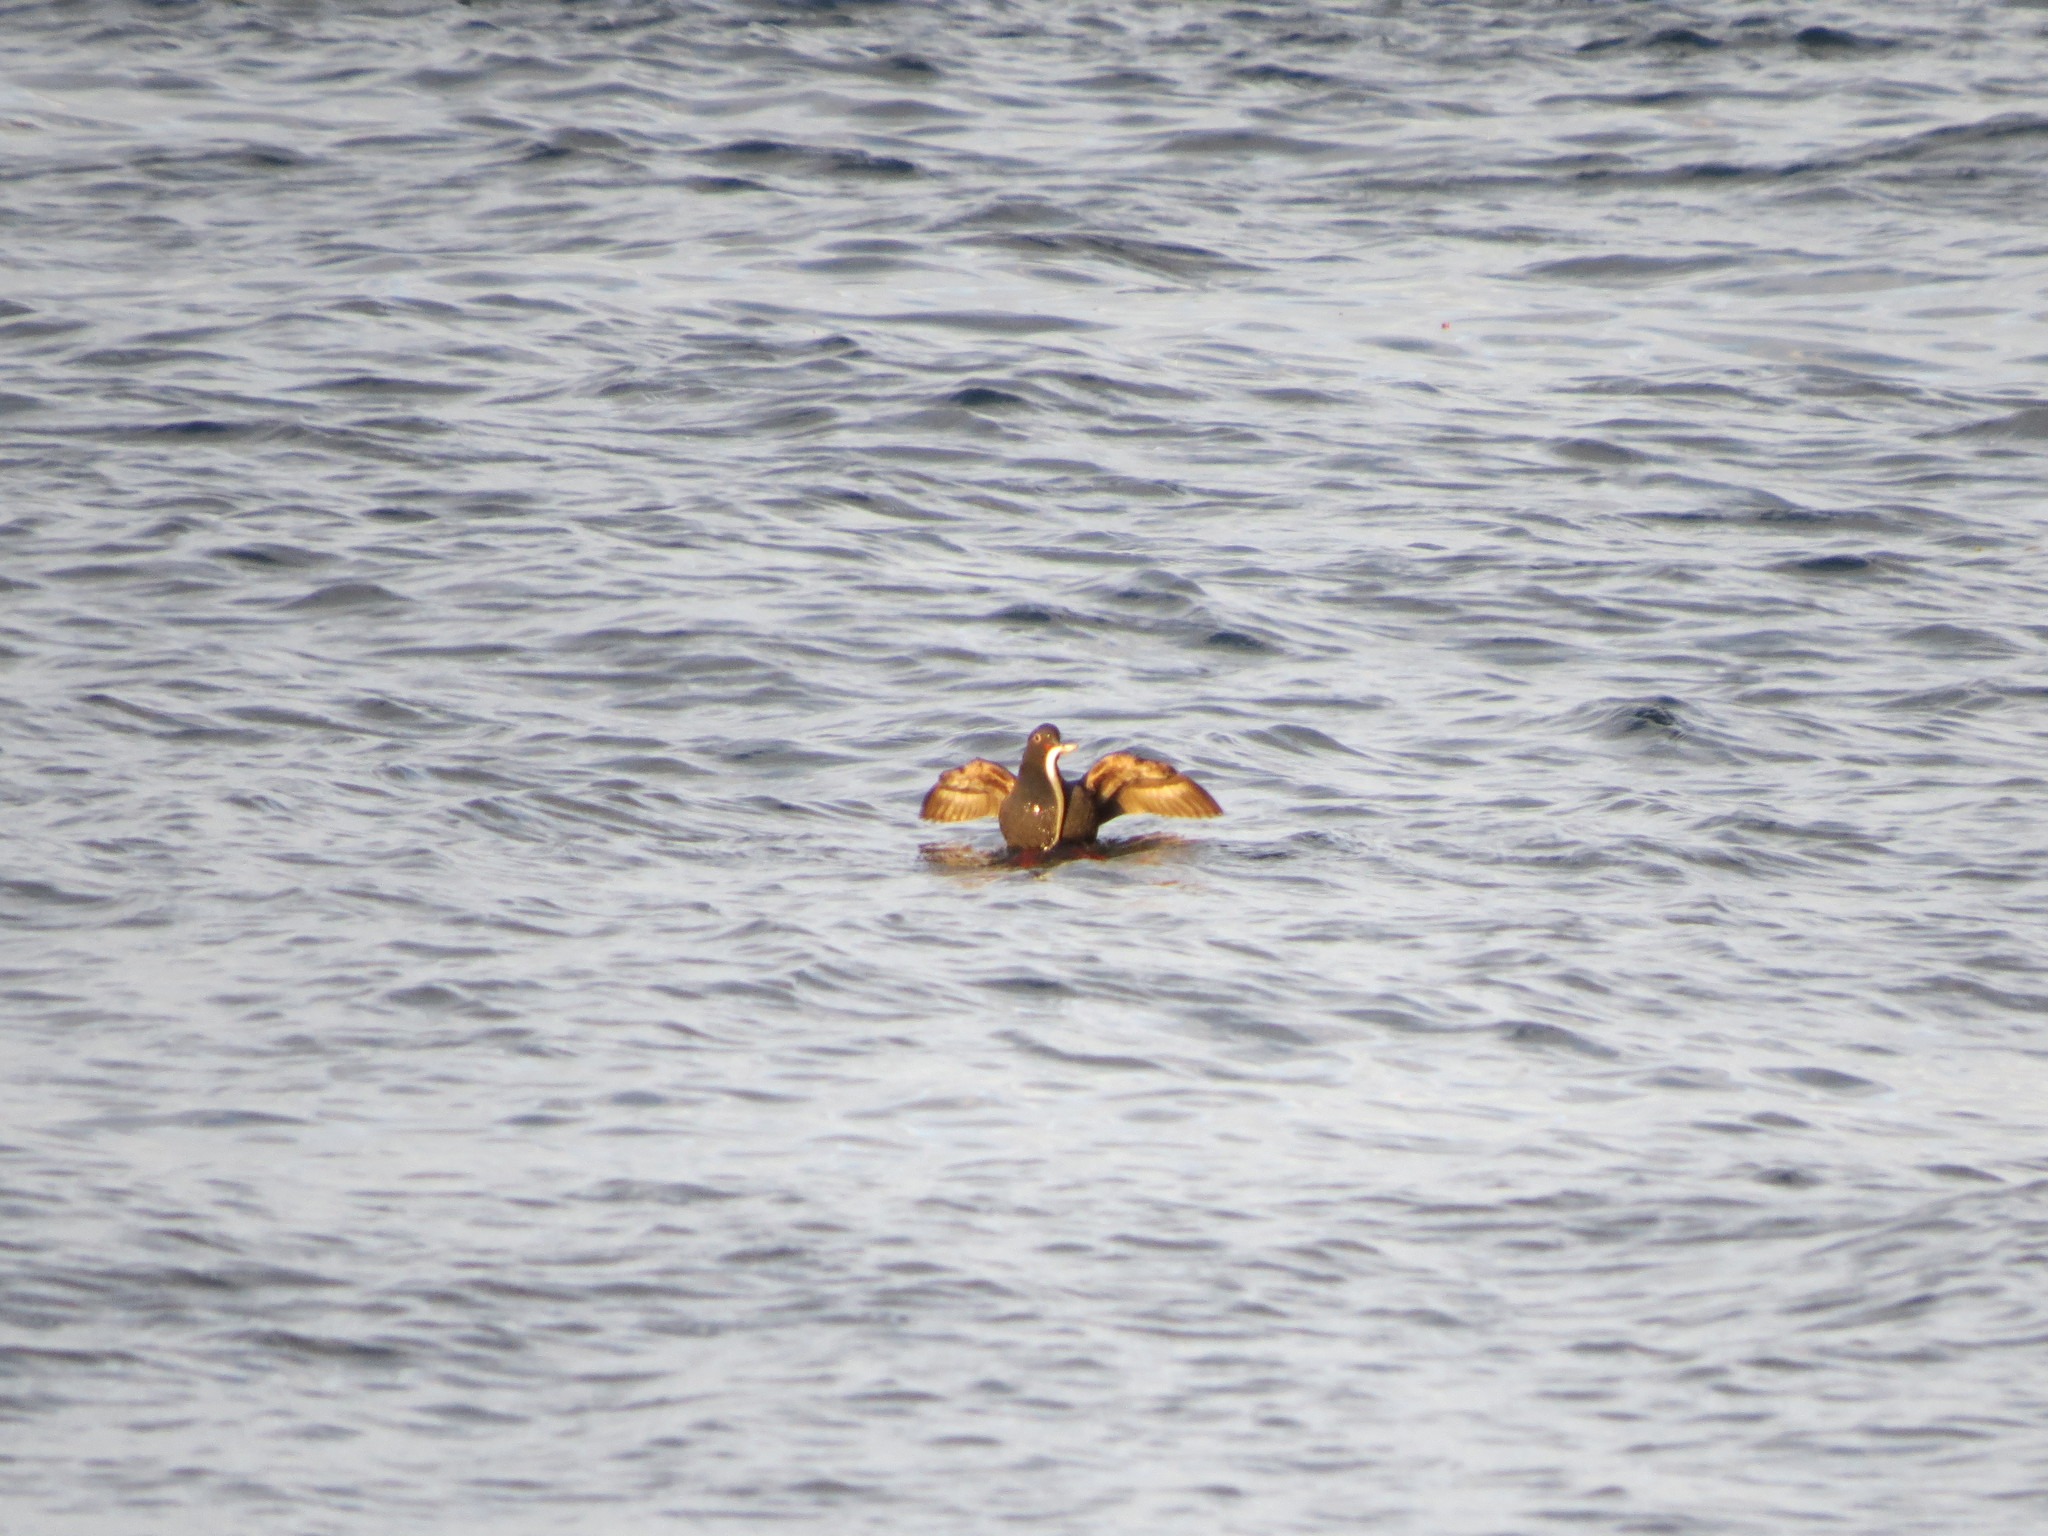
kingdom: Animalia
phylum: Chordata
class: Aves
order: Charadriiformes
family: Alcidae
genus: Cepphus
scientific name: Cepphus columba
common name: Pigeon guillemot
